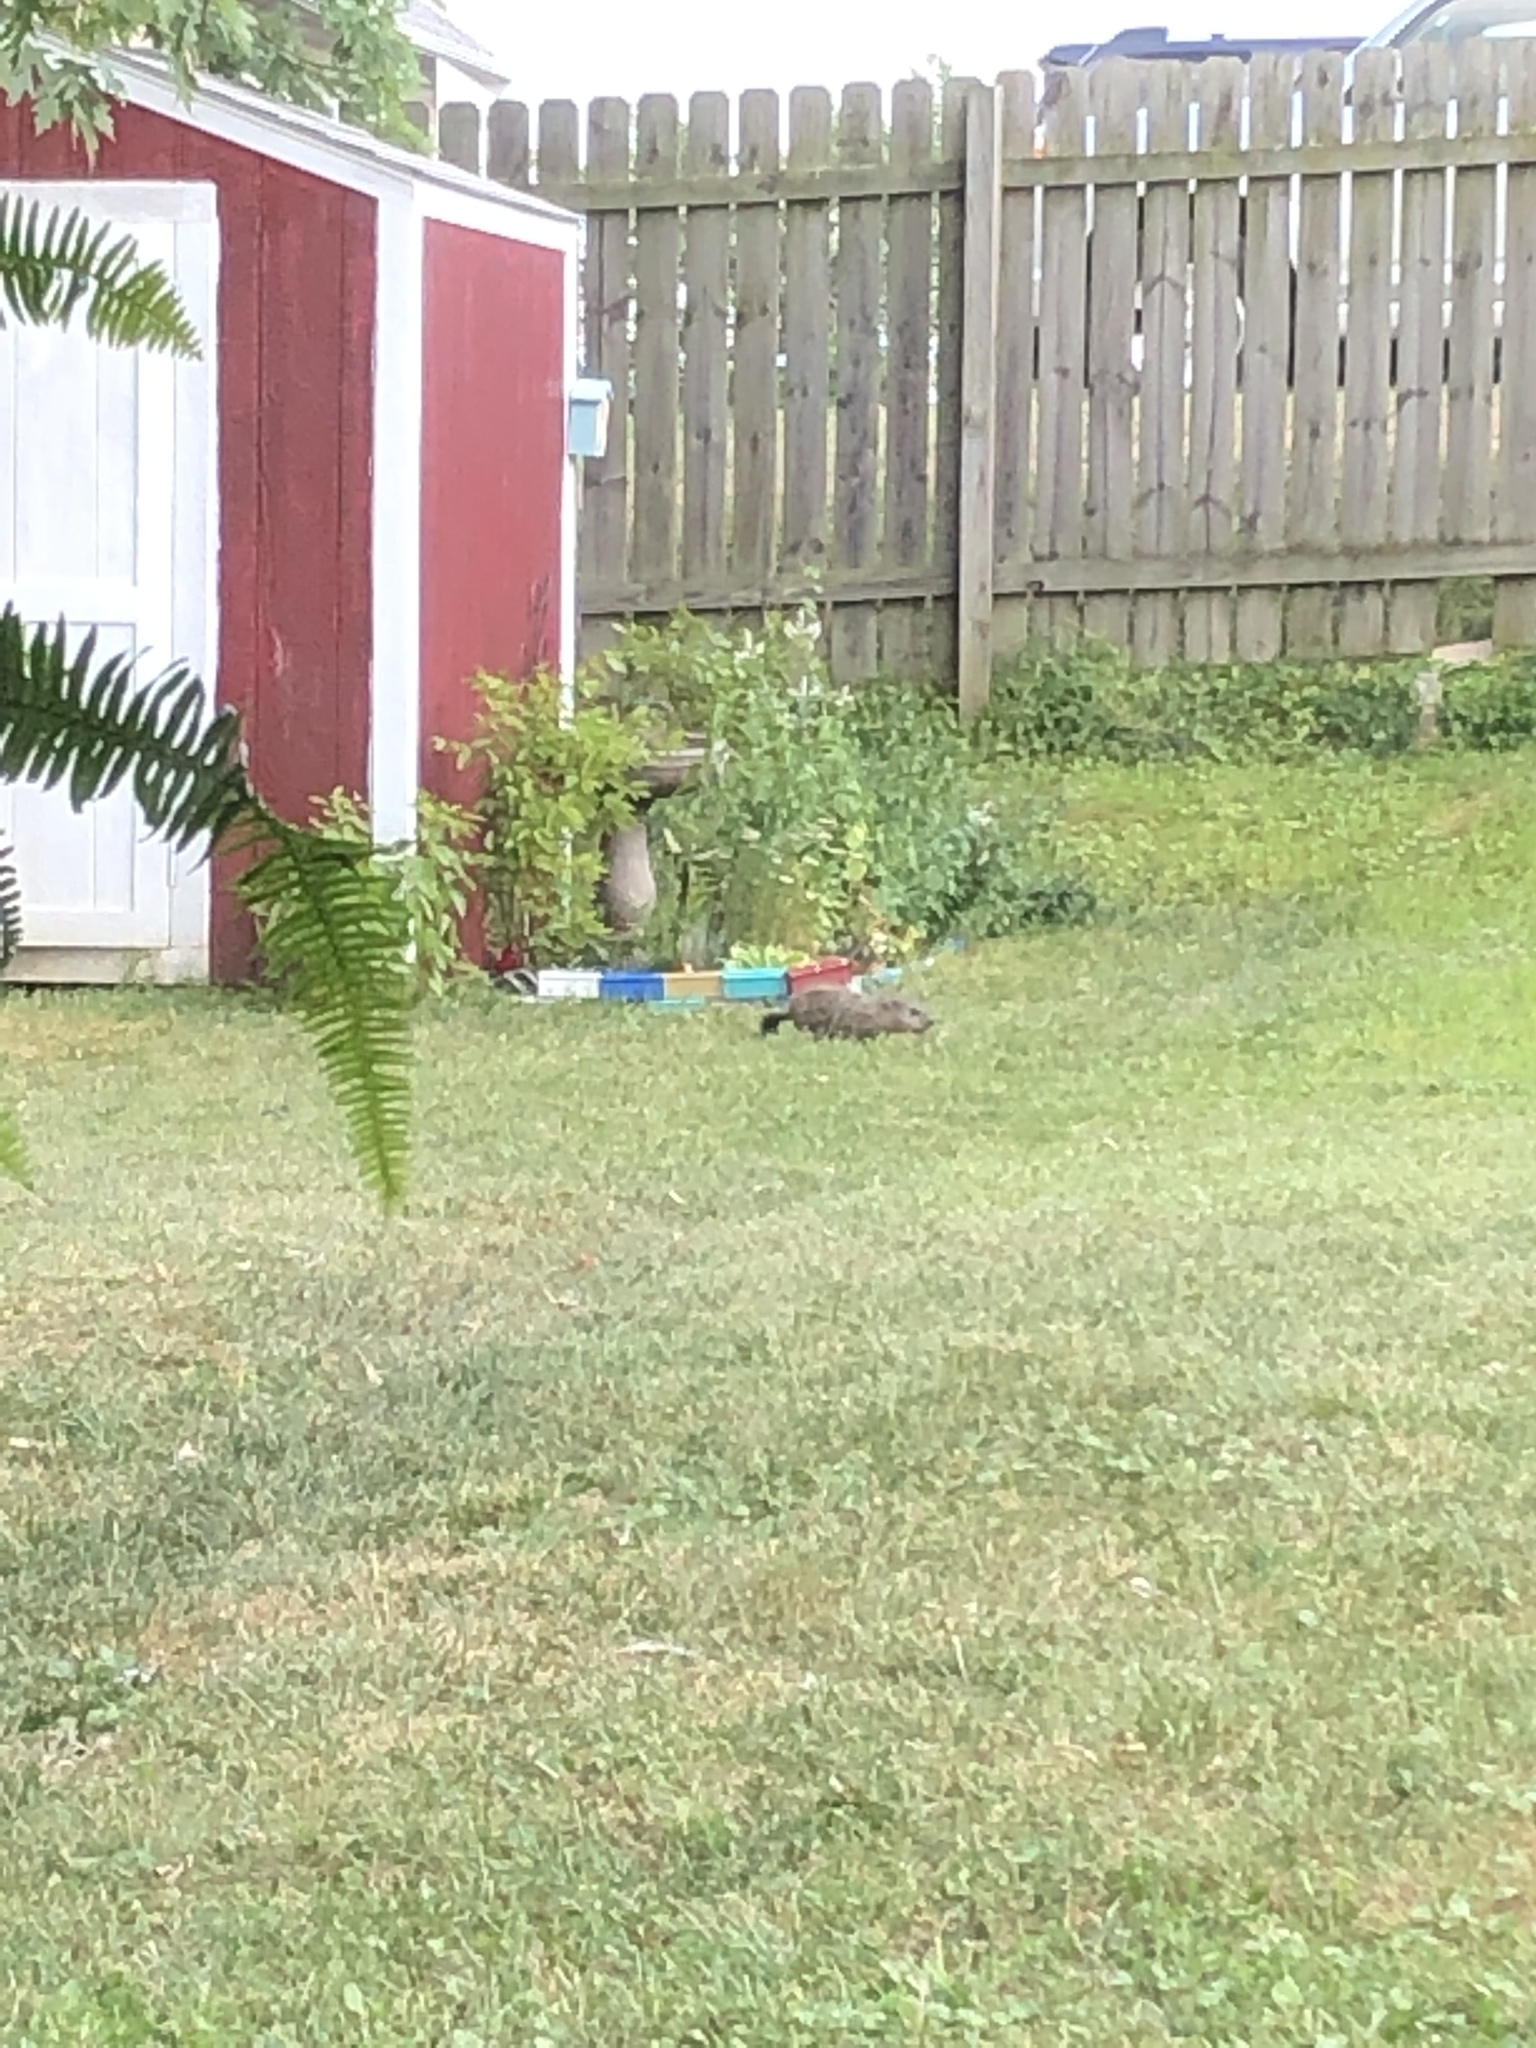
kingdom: Animalia
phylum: Chordata
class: Mammalia
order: Rodentia
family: Sciuridae
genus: Marmota
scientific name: Marmota monax
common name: Groundhog
